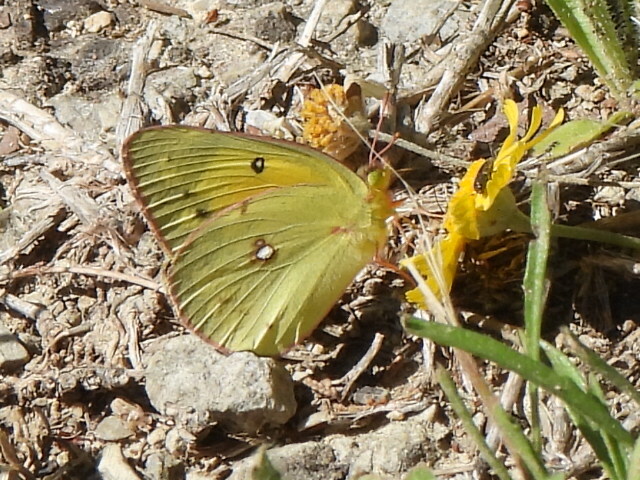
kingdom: Animalia
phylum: Arthropoda
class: Insecta
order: Lepidoptera
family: Pieridae
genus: Colias
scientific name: Colias eurytheme
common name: Alfalfa butterfly
